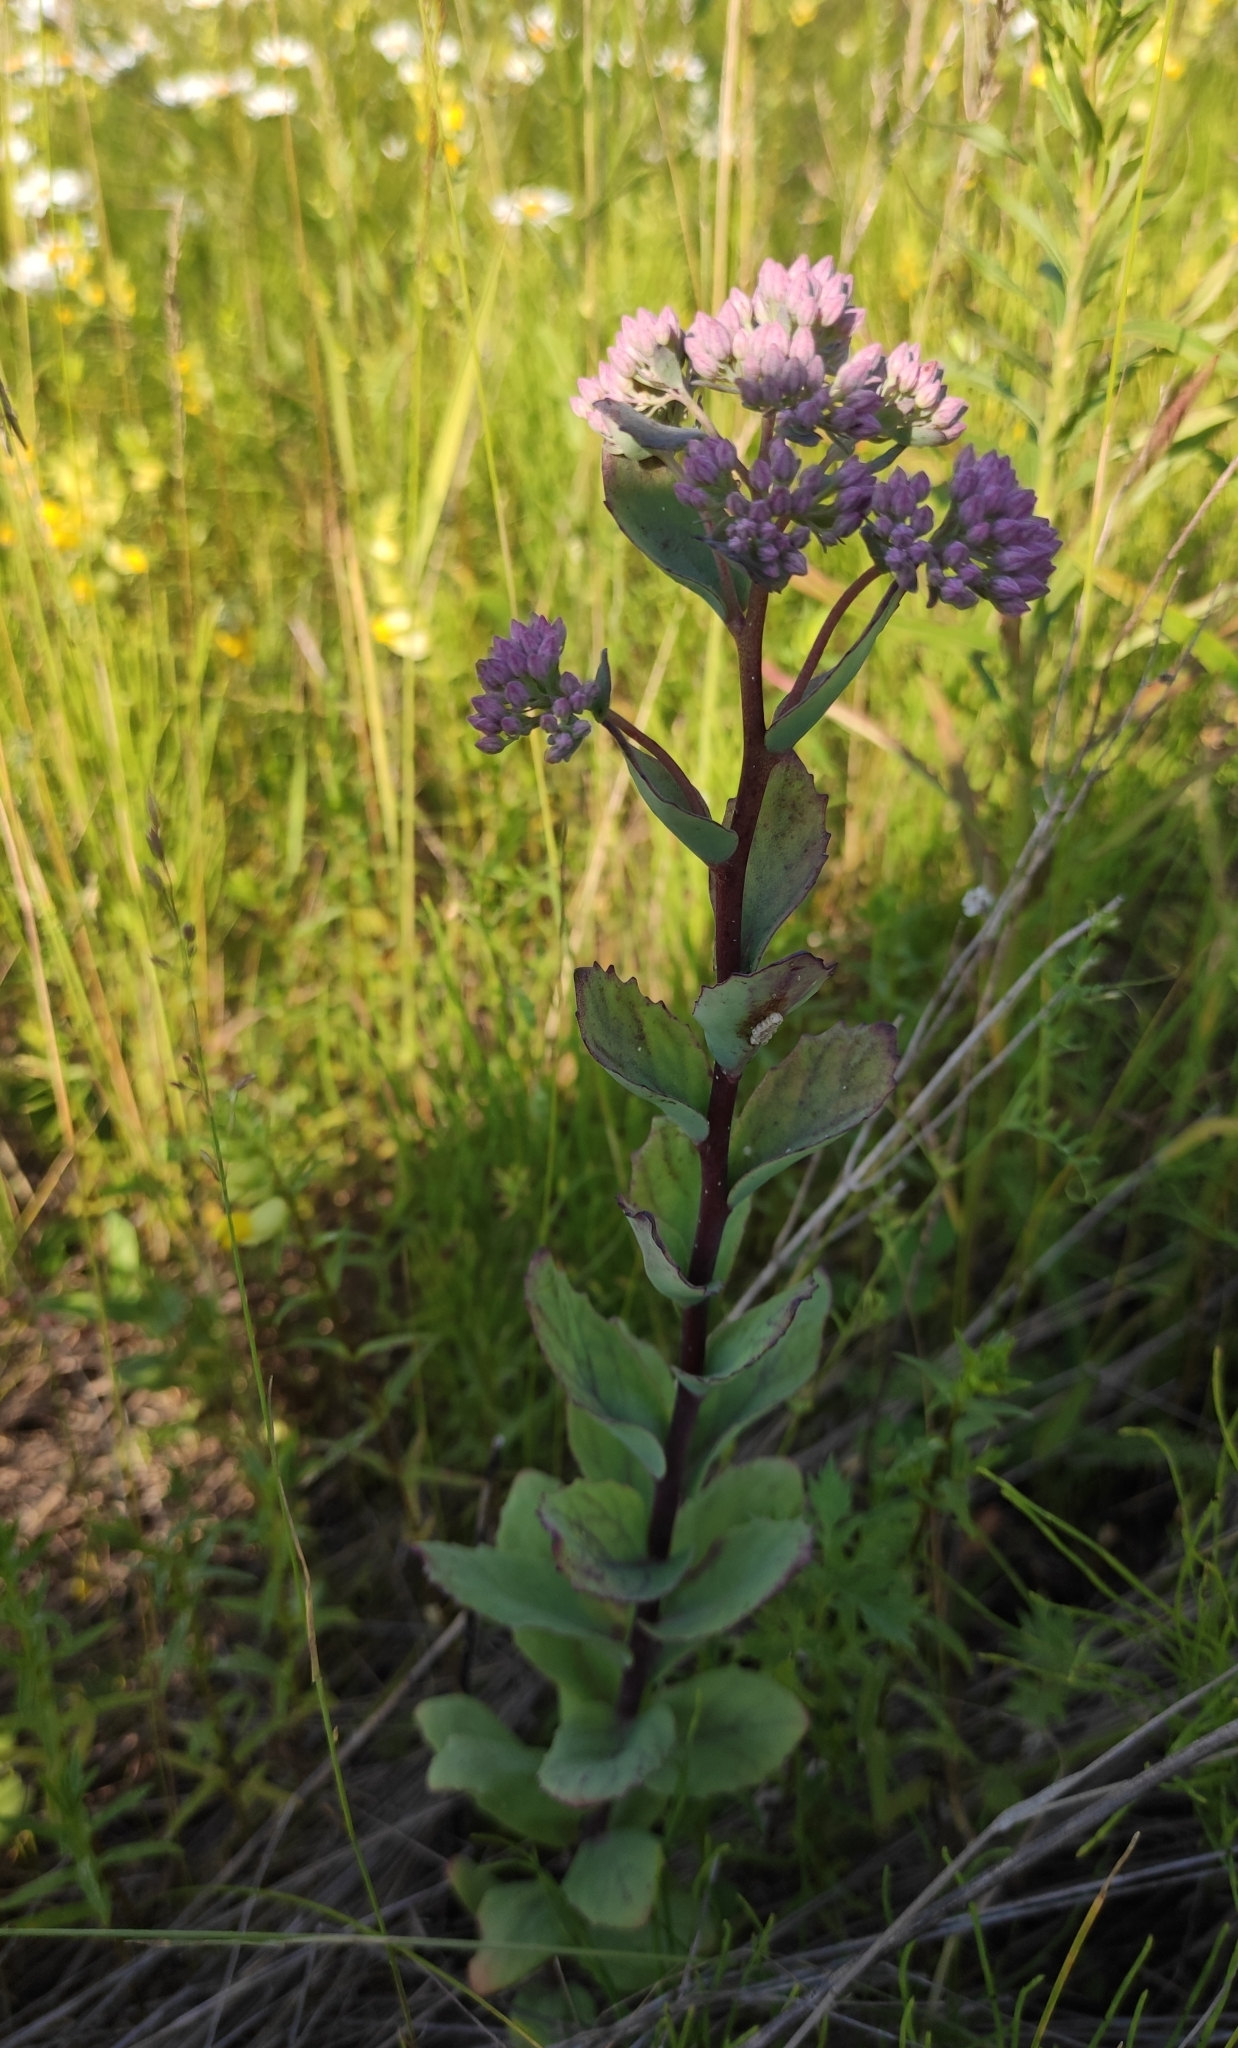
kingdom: Plantae
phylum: Tracheophyta
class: Magnoliopsida
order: Saxifragales
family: Crassulaceae
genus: Hylotelephium
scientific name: Hylotelephium telephium
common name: Live-forever
